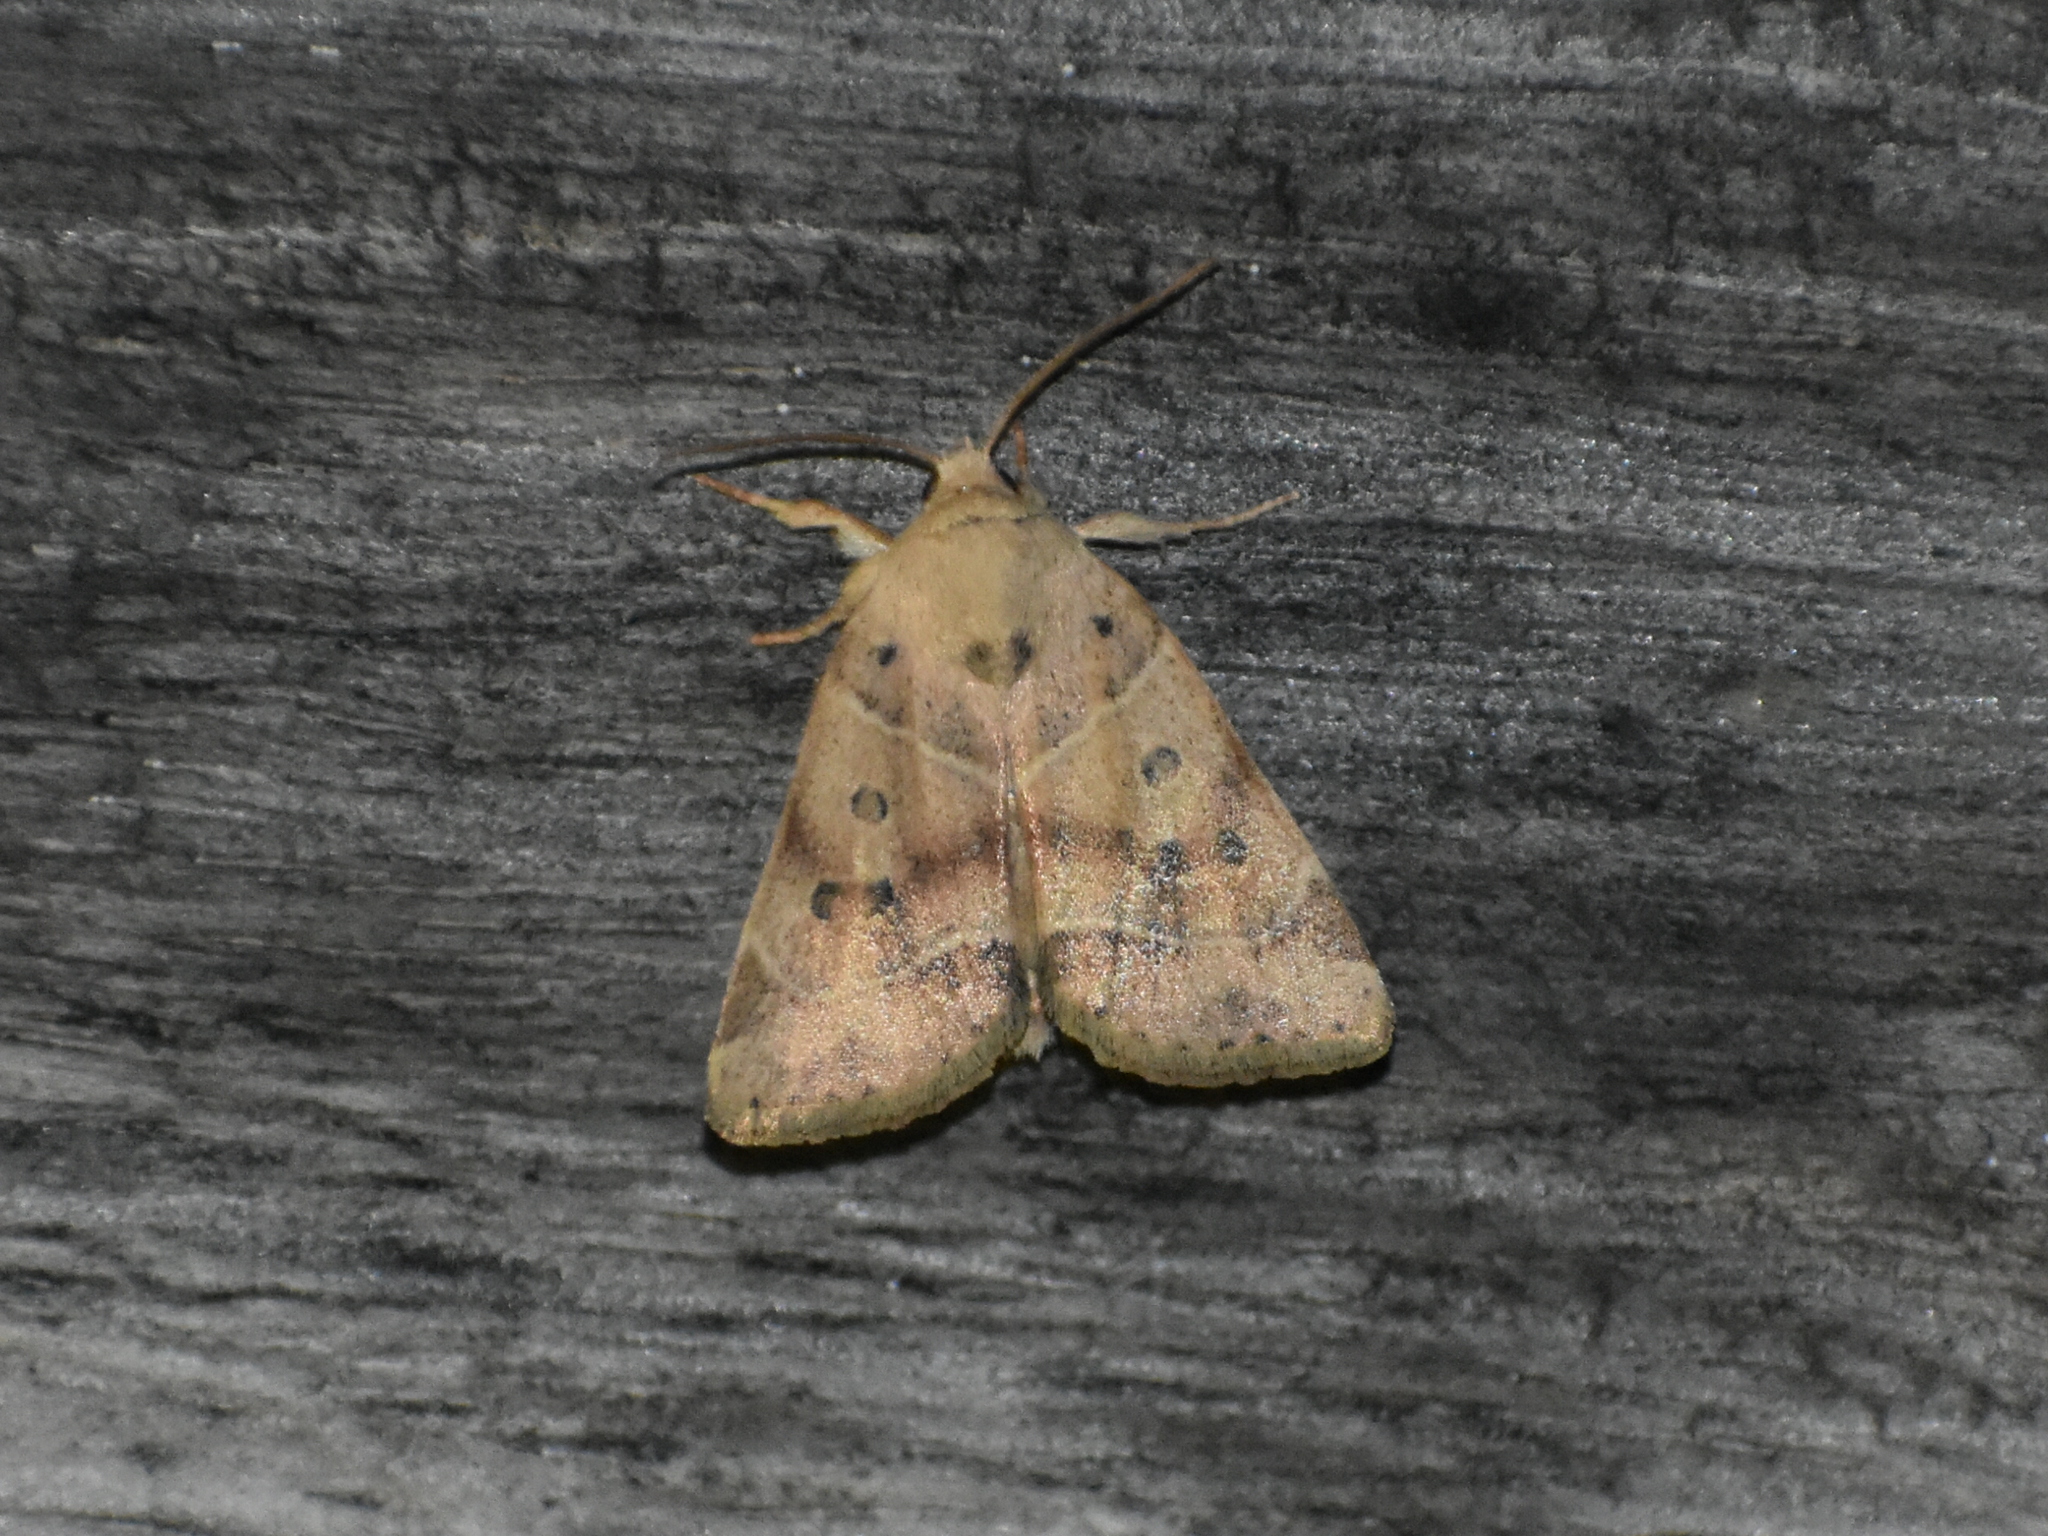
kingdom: Animalia
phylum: Arthropoda
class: Insecta
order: Lepidoptera
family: Noctuidae
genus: Cosmia
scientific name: Cosmia calami
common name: American dun-bar moth
